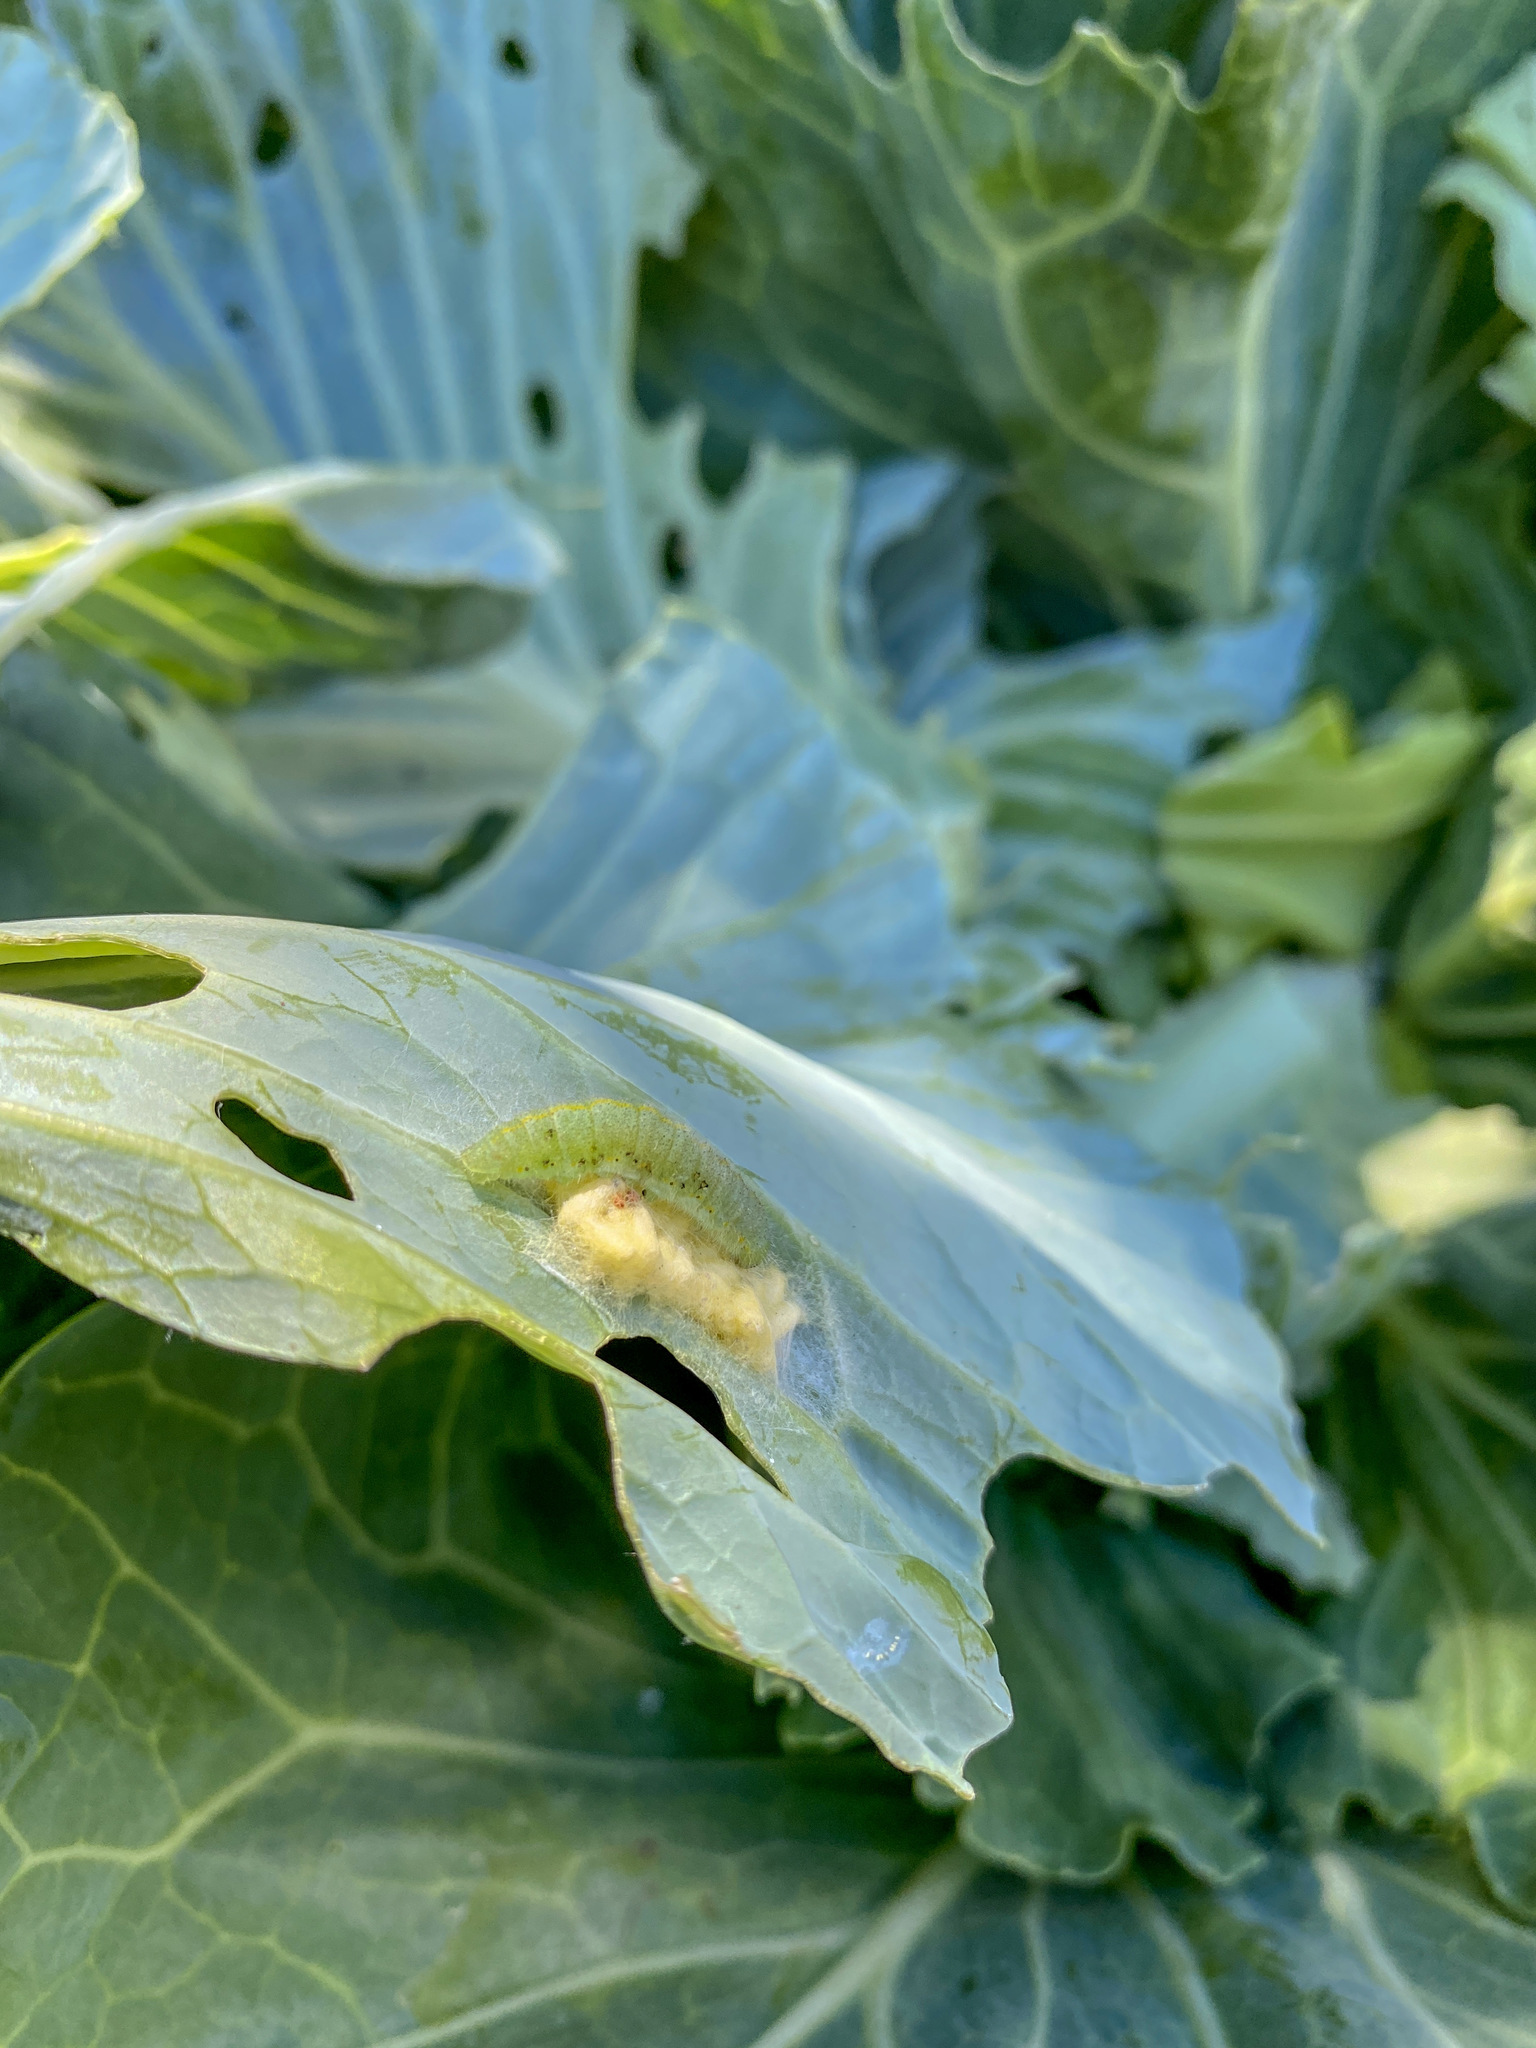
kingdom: Animalia
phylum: Arthropoda
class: Insecta
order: Lepidoptera
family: Pieridae
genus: Pieris
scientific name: Pieris rapae
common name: Small white
